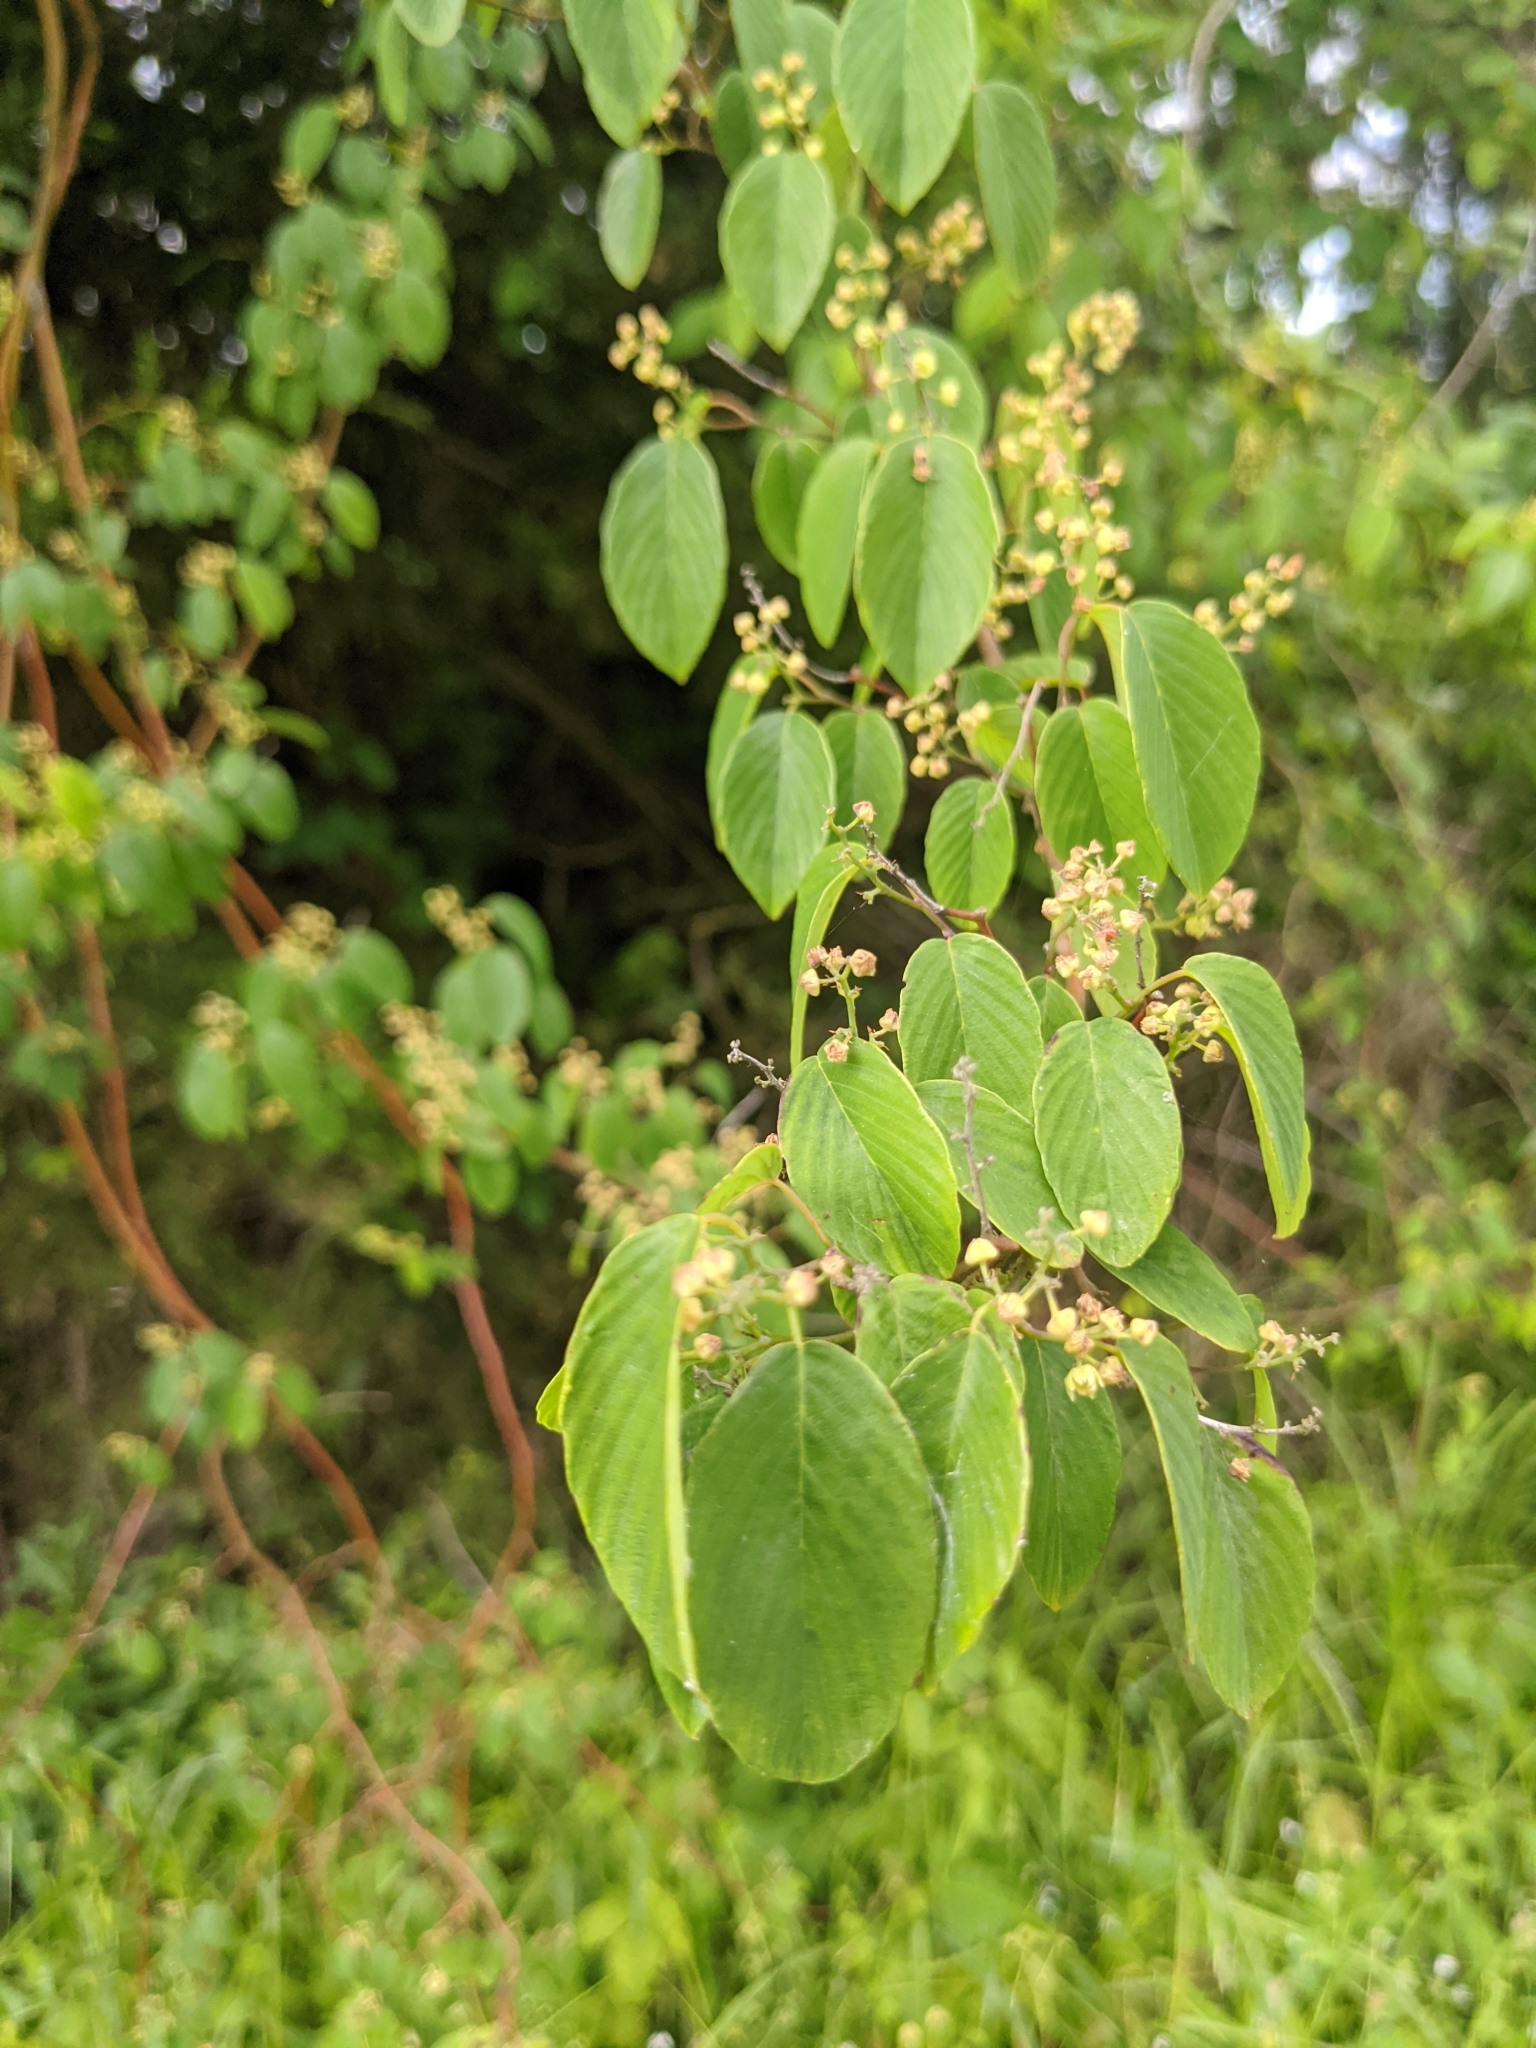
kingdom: Plantae
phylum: Tracheophyta
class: Magnoliopsida
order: Rosales
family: Rhamnaceae
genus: Berchemia
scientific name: Berchemia scandens
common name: Supplejack
